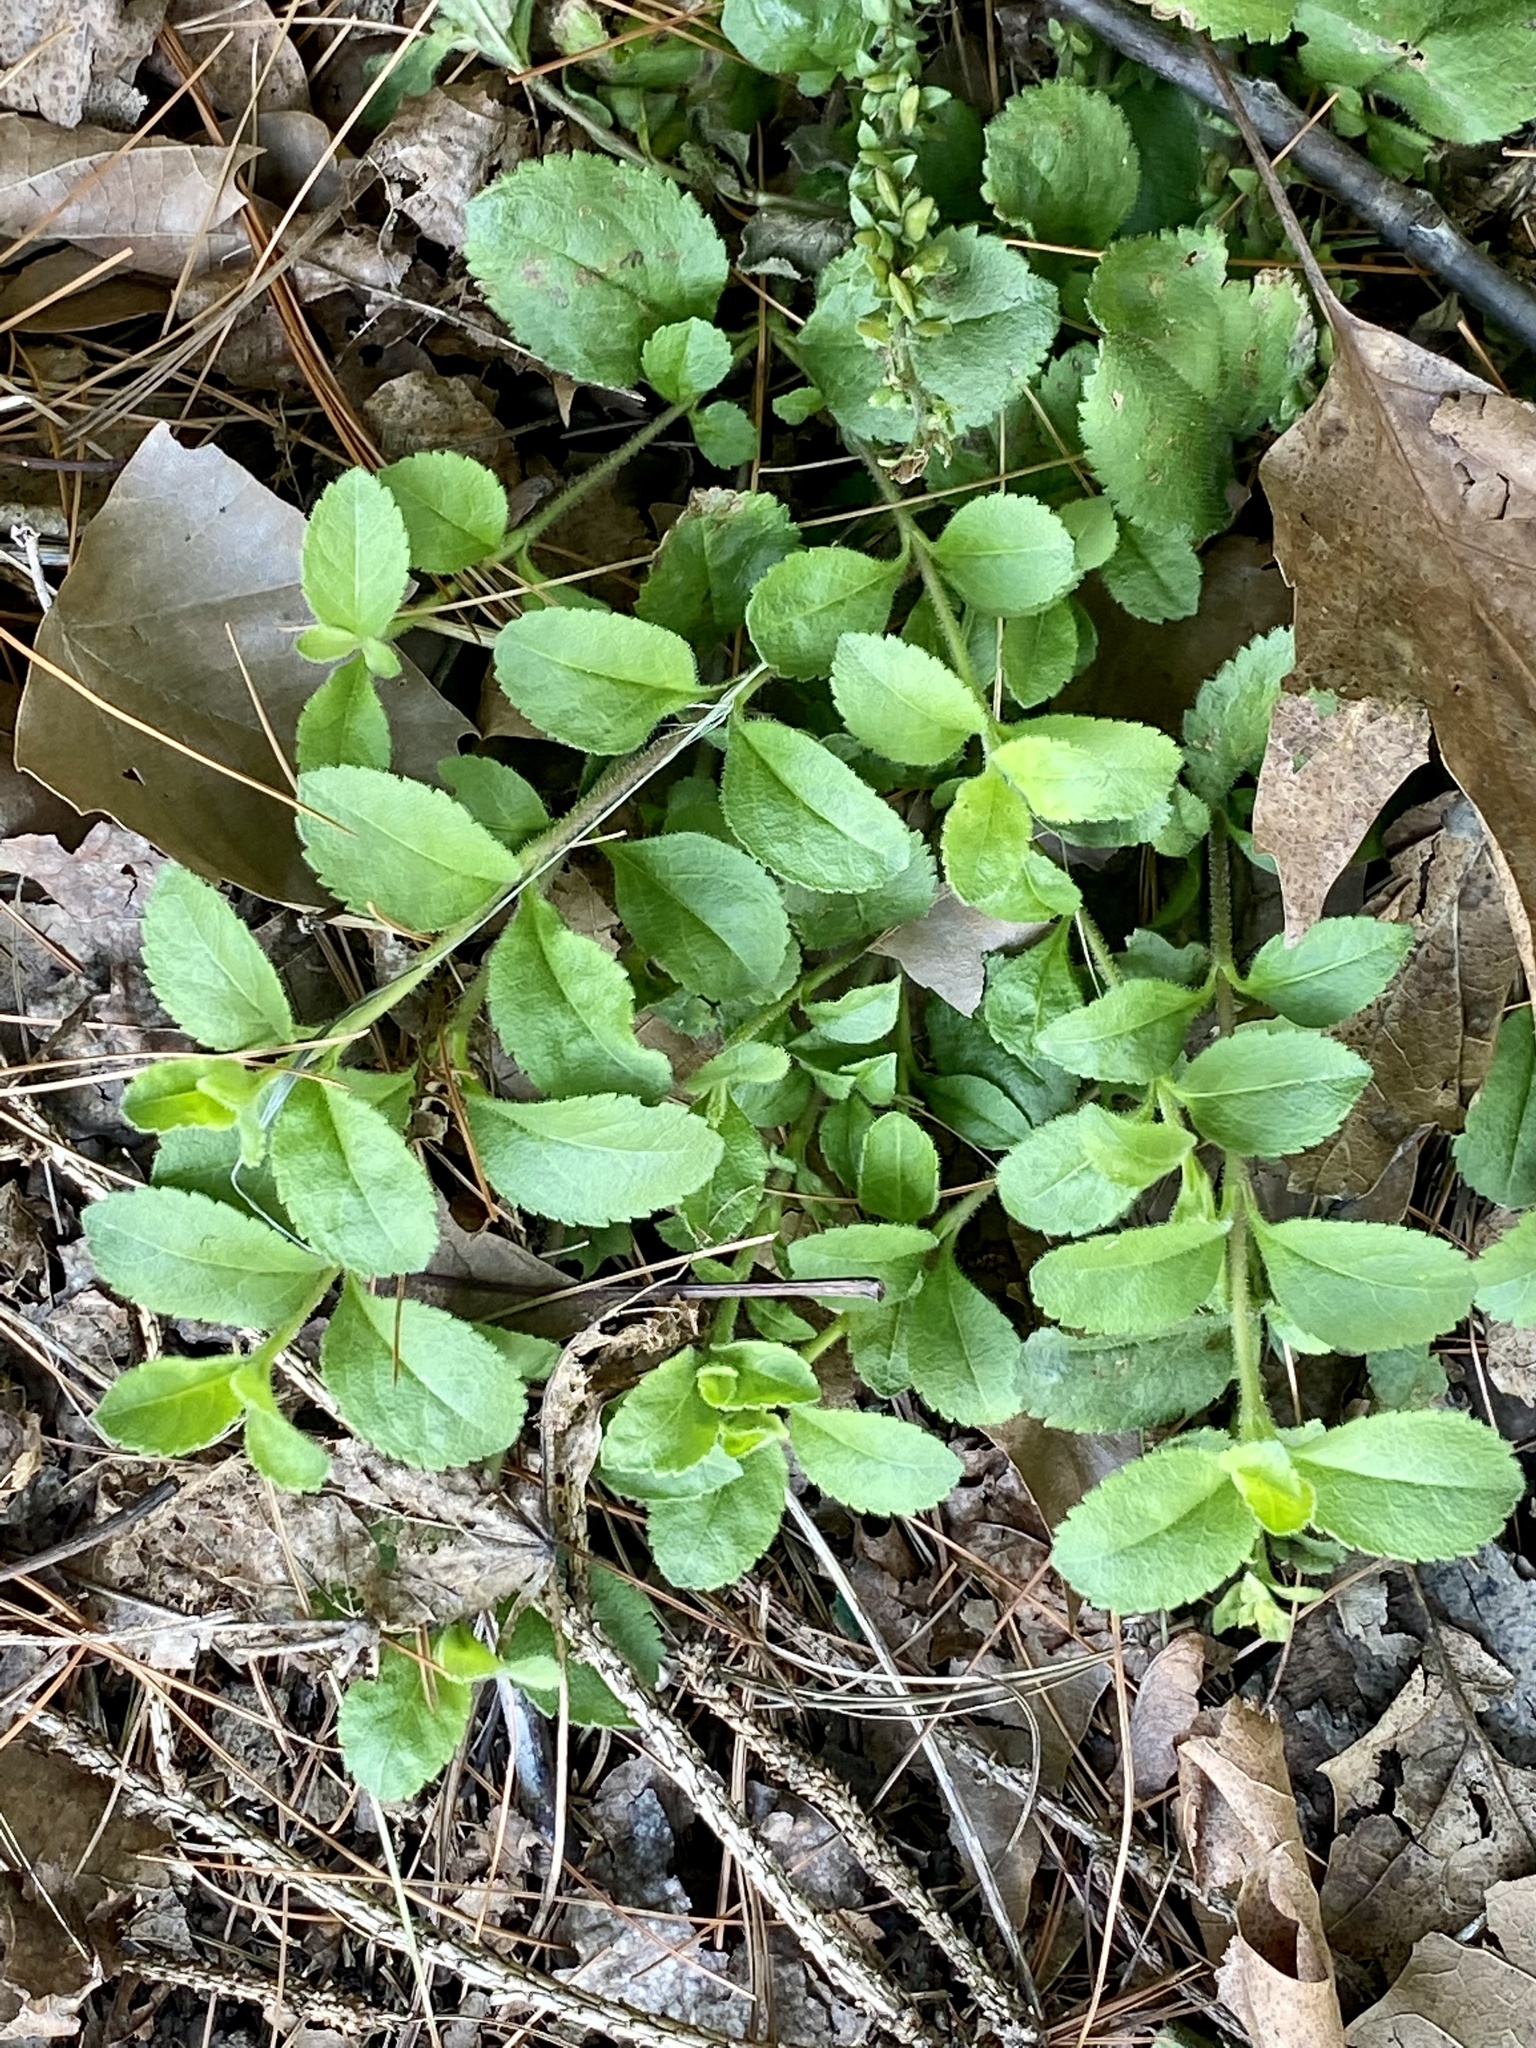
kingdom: Plantae
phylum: Tracheophyta
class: Magnoliopsida
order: Lamiales
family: Plantaginaceae
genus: Veronica
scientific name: Veronica officinalis
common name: Common speedwell
